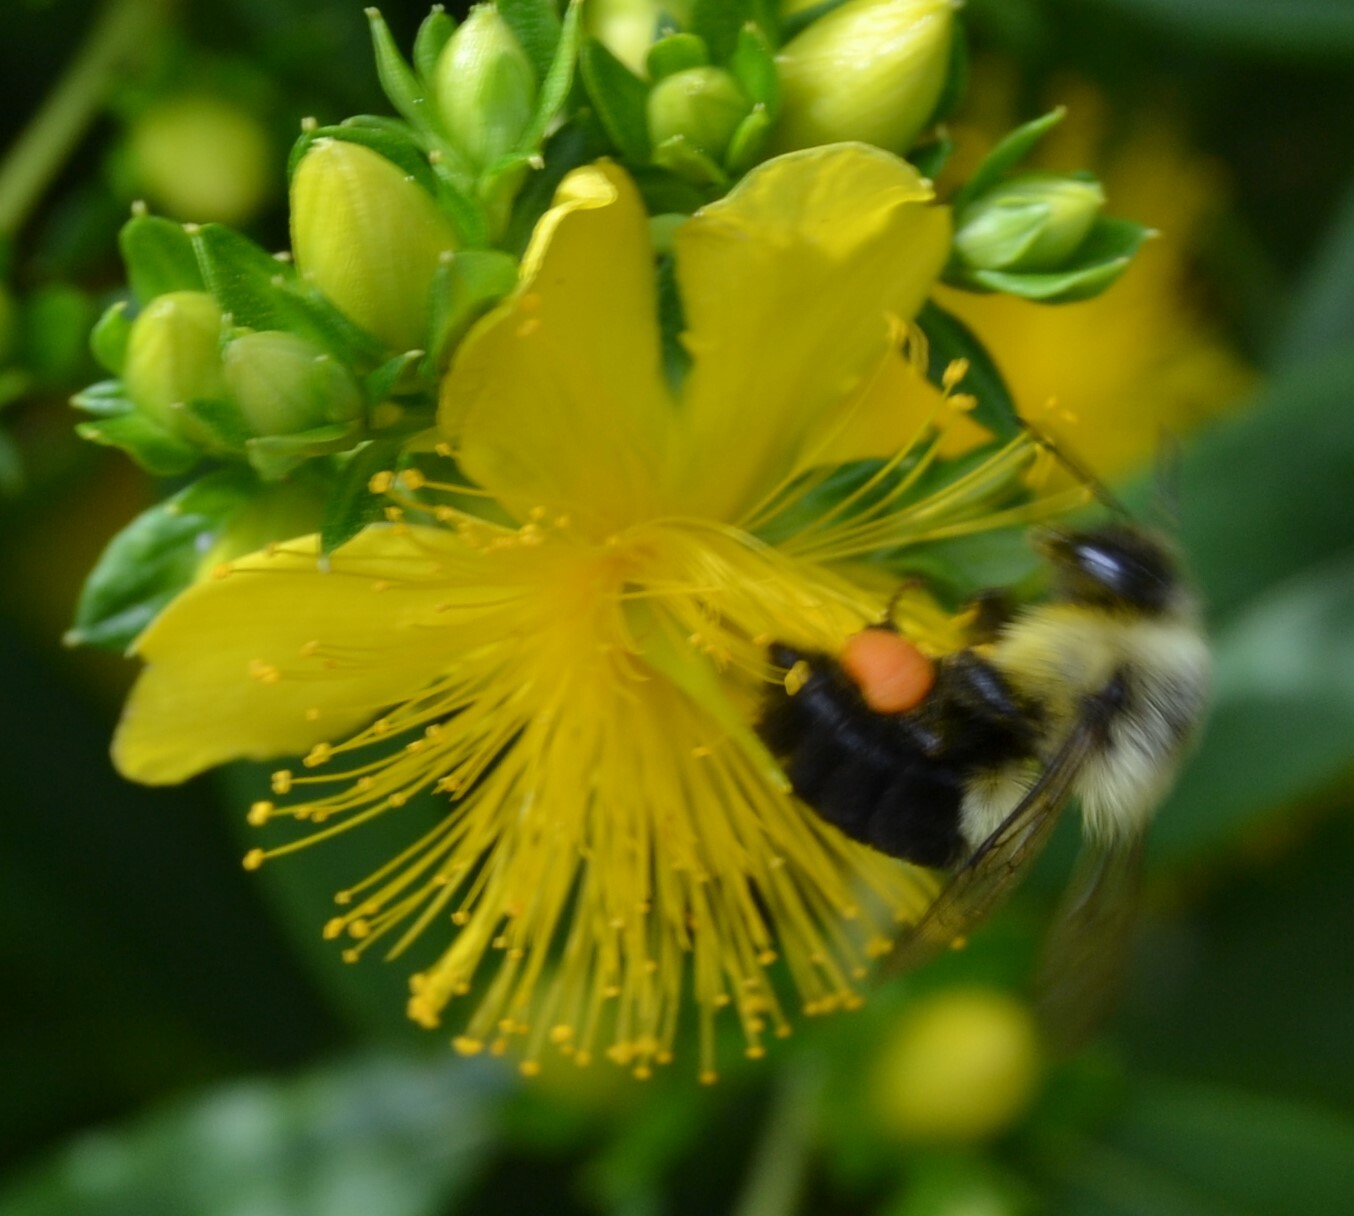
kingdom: Animalia
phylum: Arthropoda
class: Insecta
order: Hymenoptera
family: Apidae
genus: Bombus
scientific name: Bombus impatiens
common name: Common eastern bumble bee
